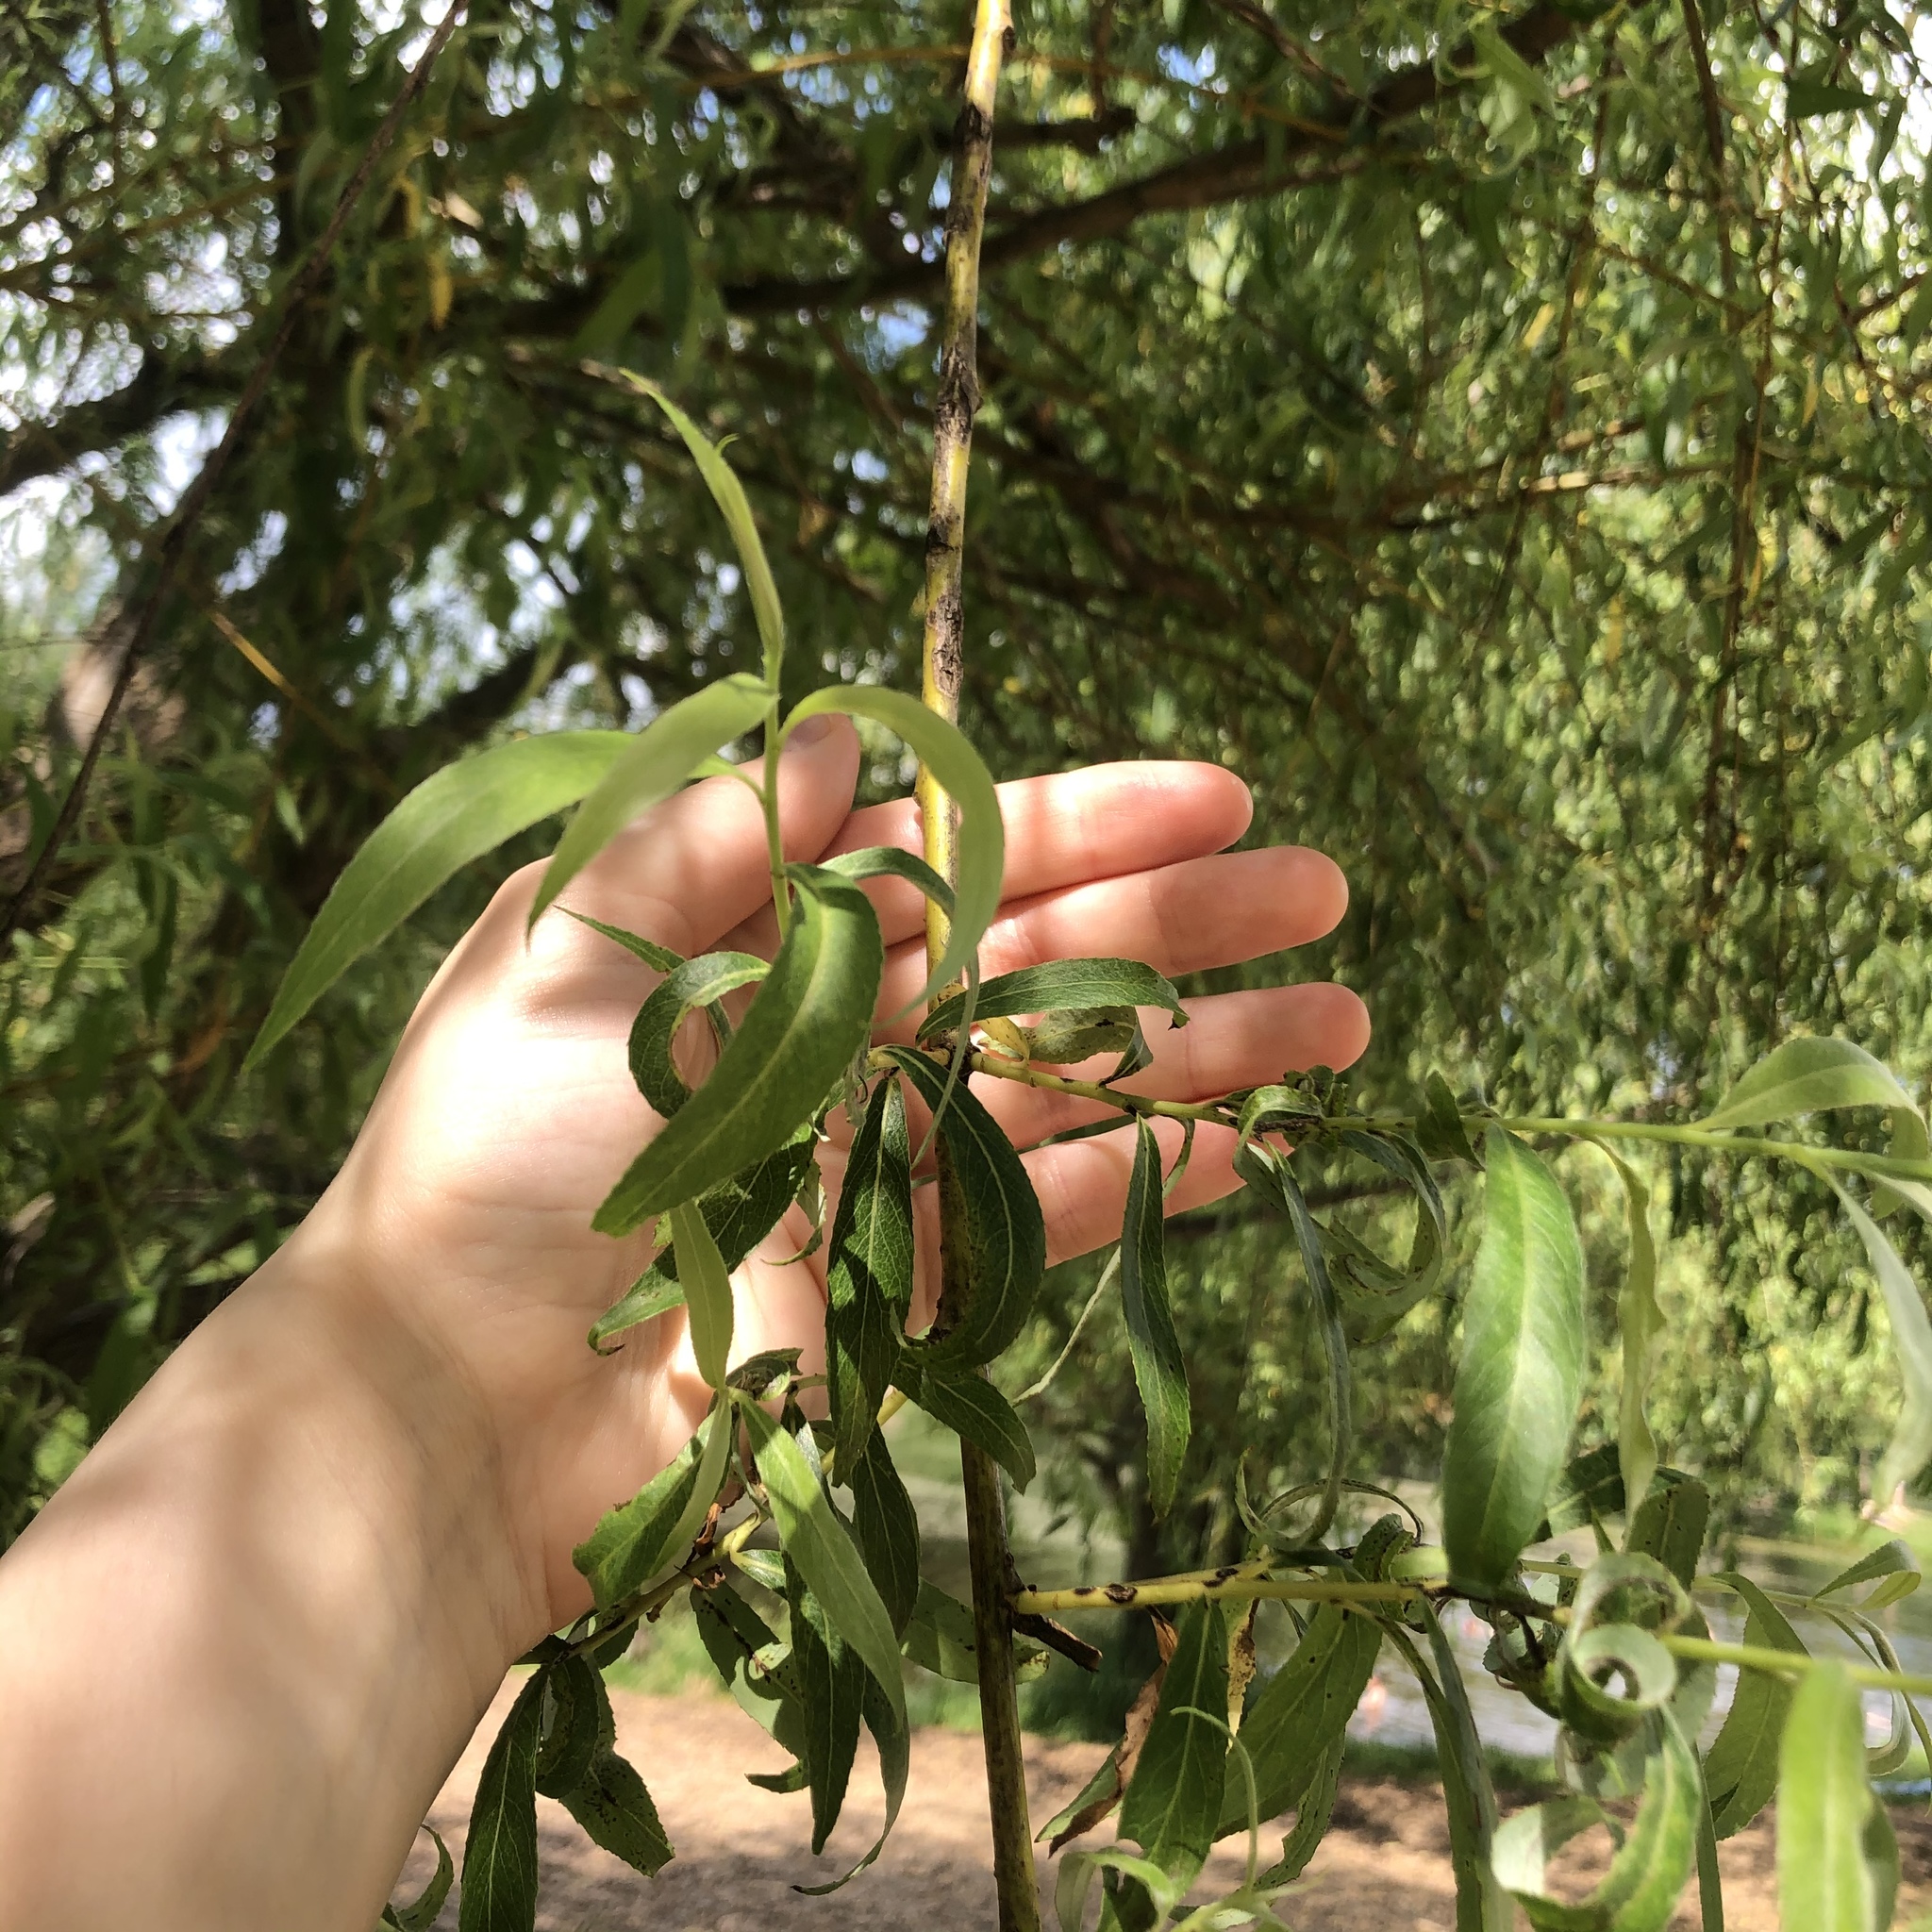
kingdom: Plantae
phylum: Tracheophyta
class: Magnoliopsida
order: Malpighiales
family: Salicaceae
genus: Salix
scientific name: Salix alba
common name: White willow
